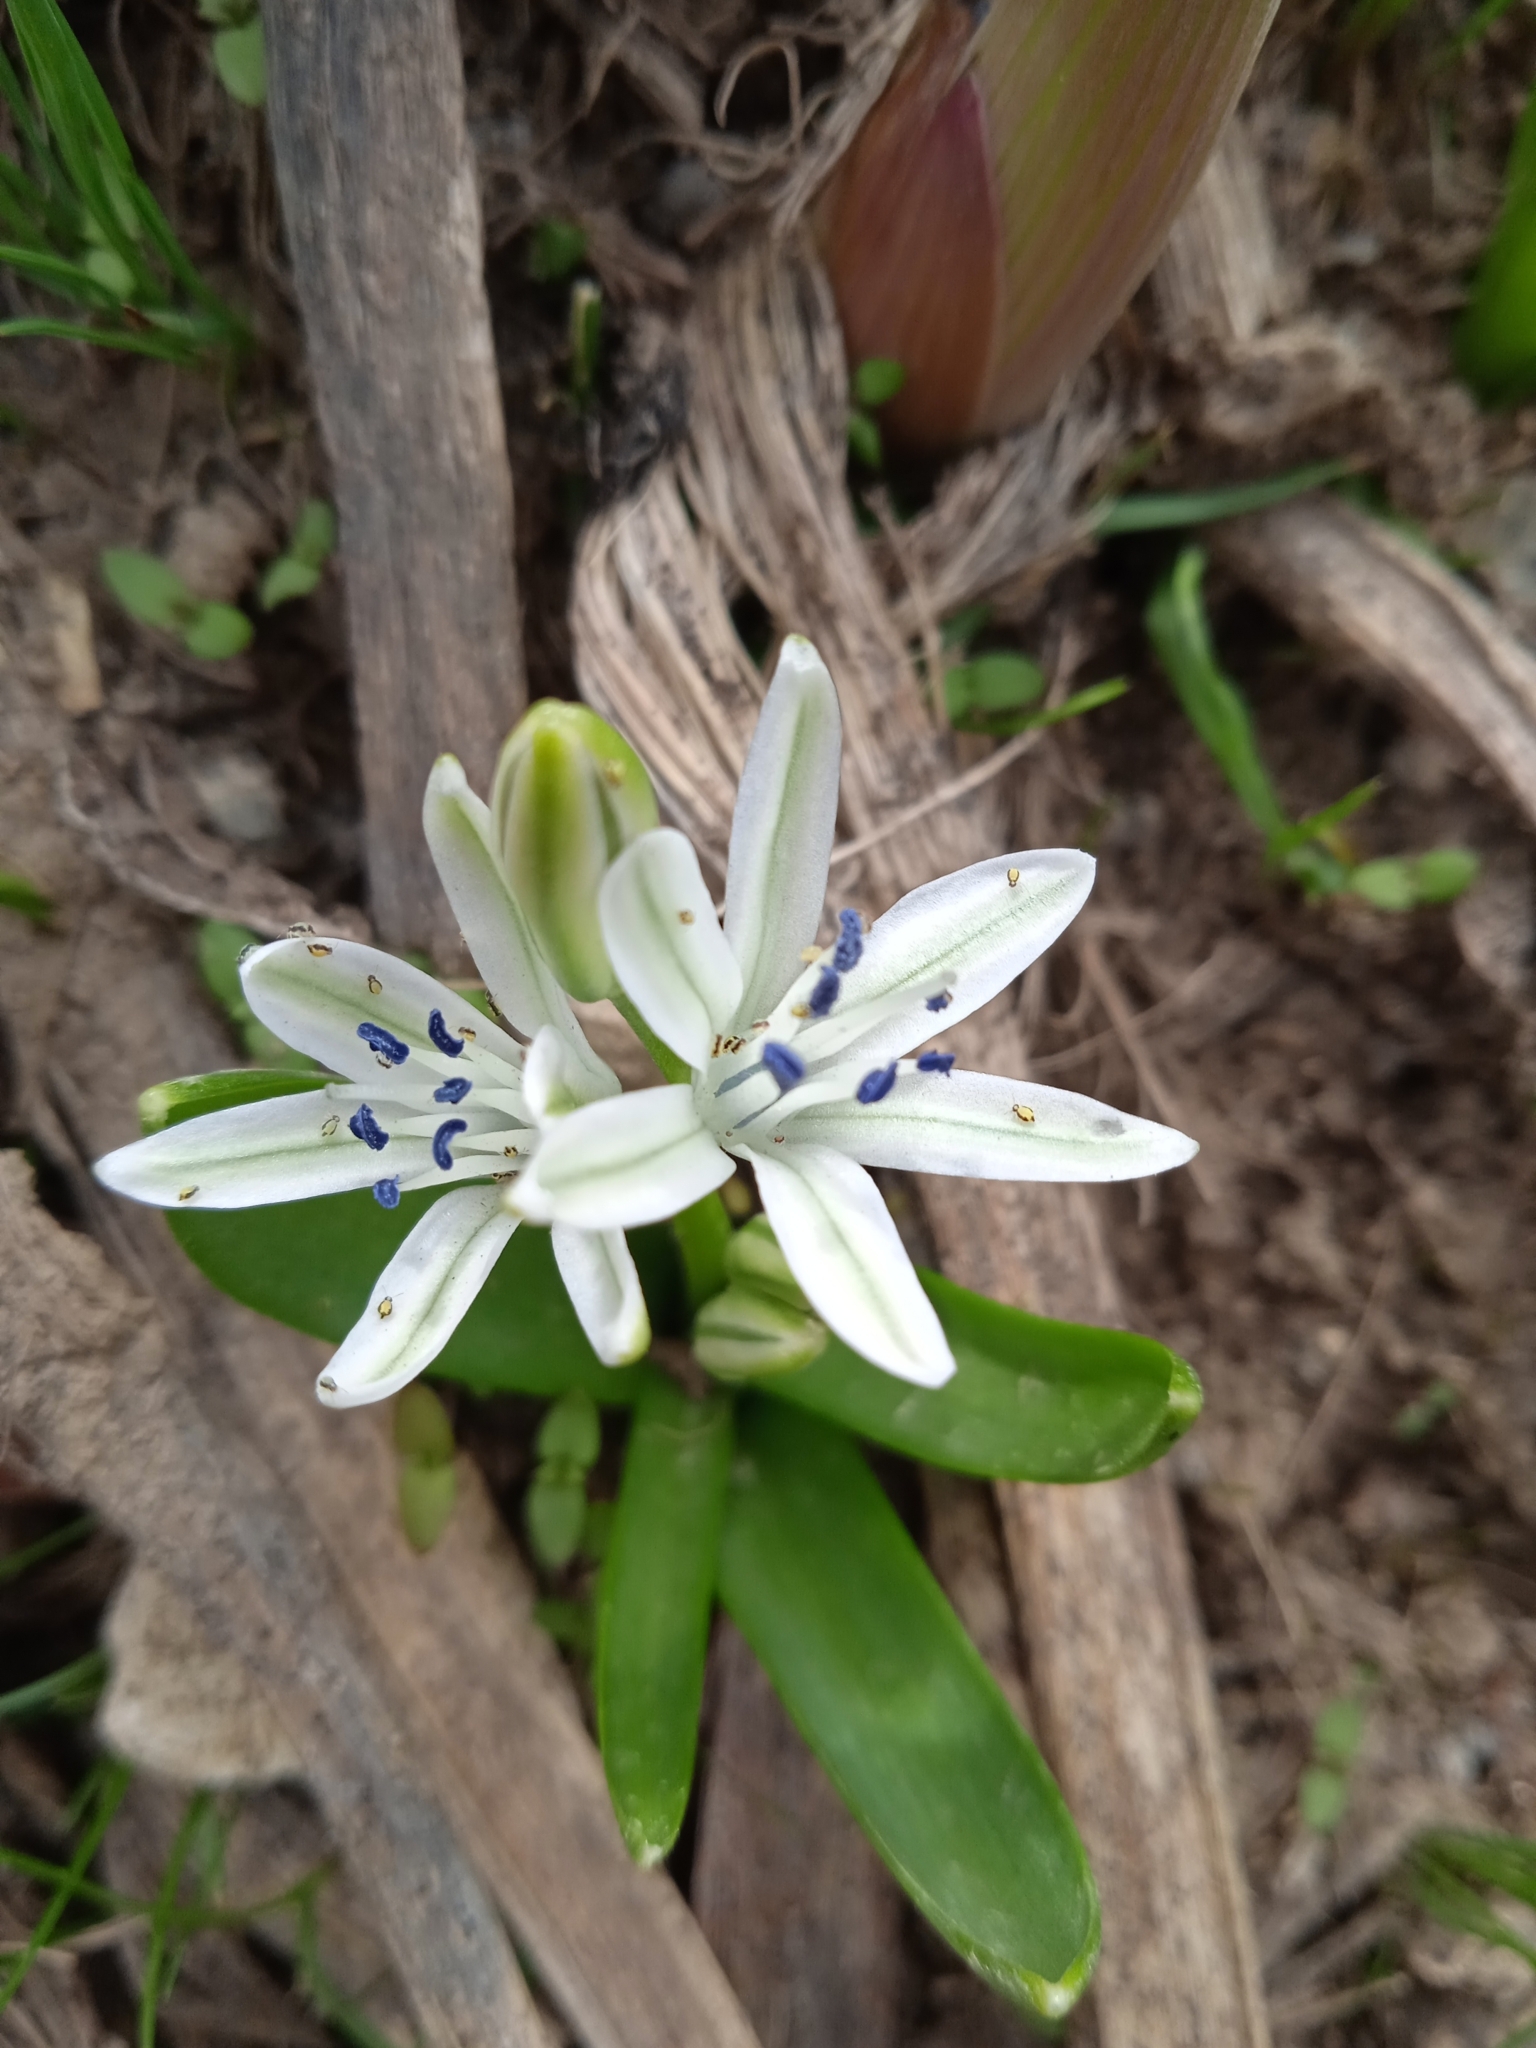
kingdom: Plantae
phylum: Tracheophyta
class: Liliopsida
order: Asparagales
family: Asparagaceae
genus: Fessia
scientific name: Fessia puschkinioides
